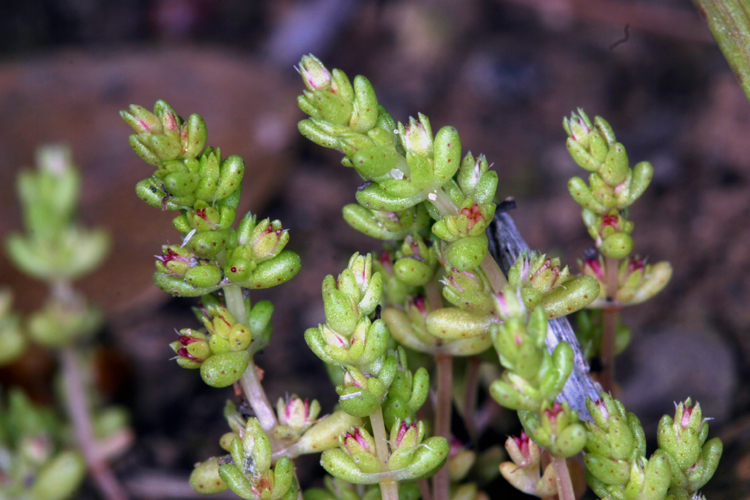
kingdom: Plantae
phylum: Tracheophyta
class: Magnoliopsida
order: Saxifragales
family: Crassulaceae
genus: Crassula
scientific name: Crassula connata
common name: Erect pygmyweed
